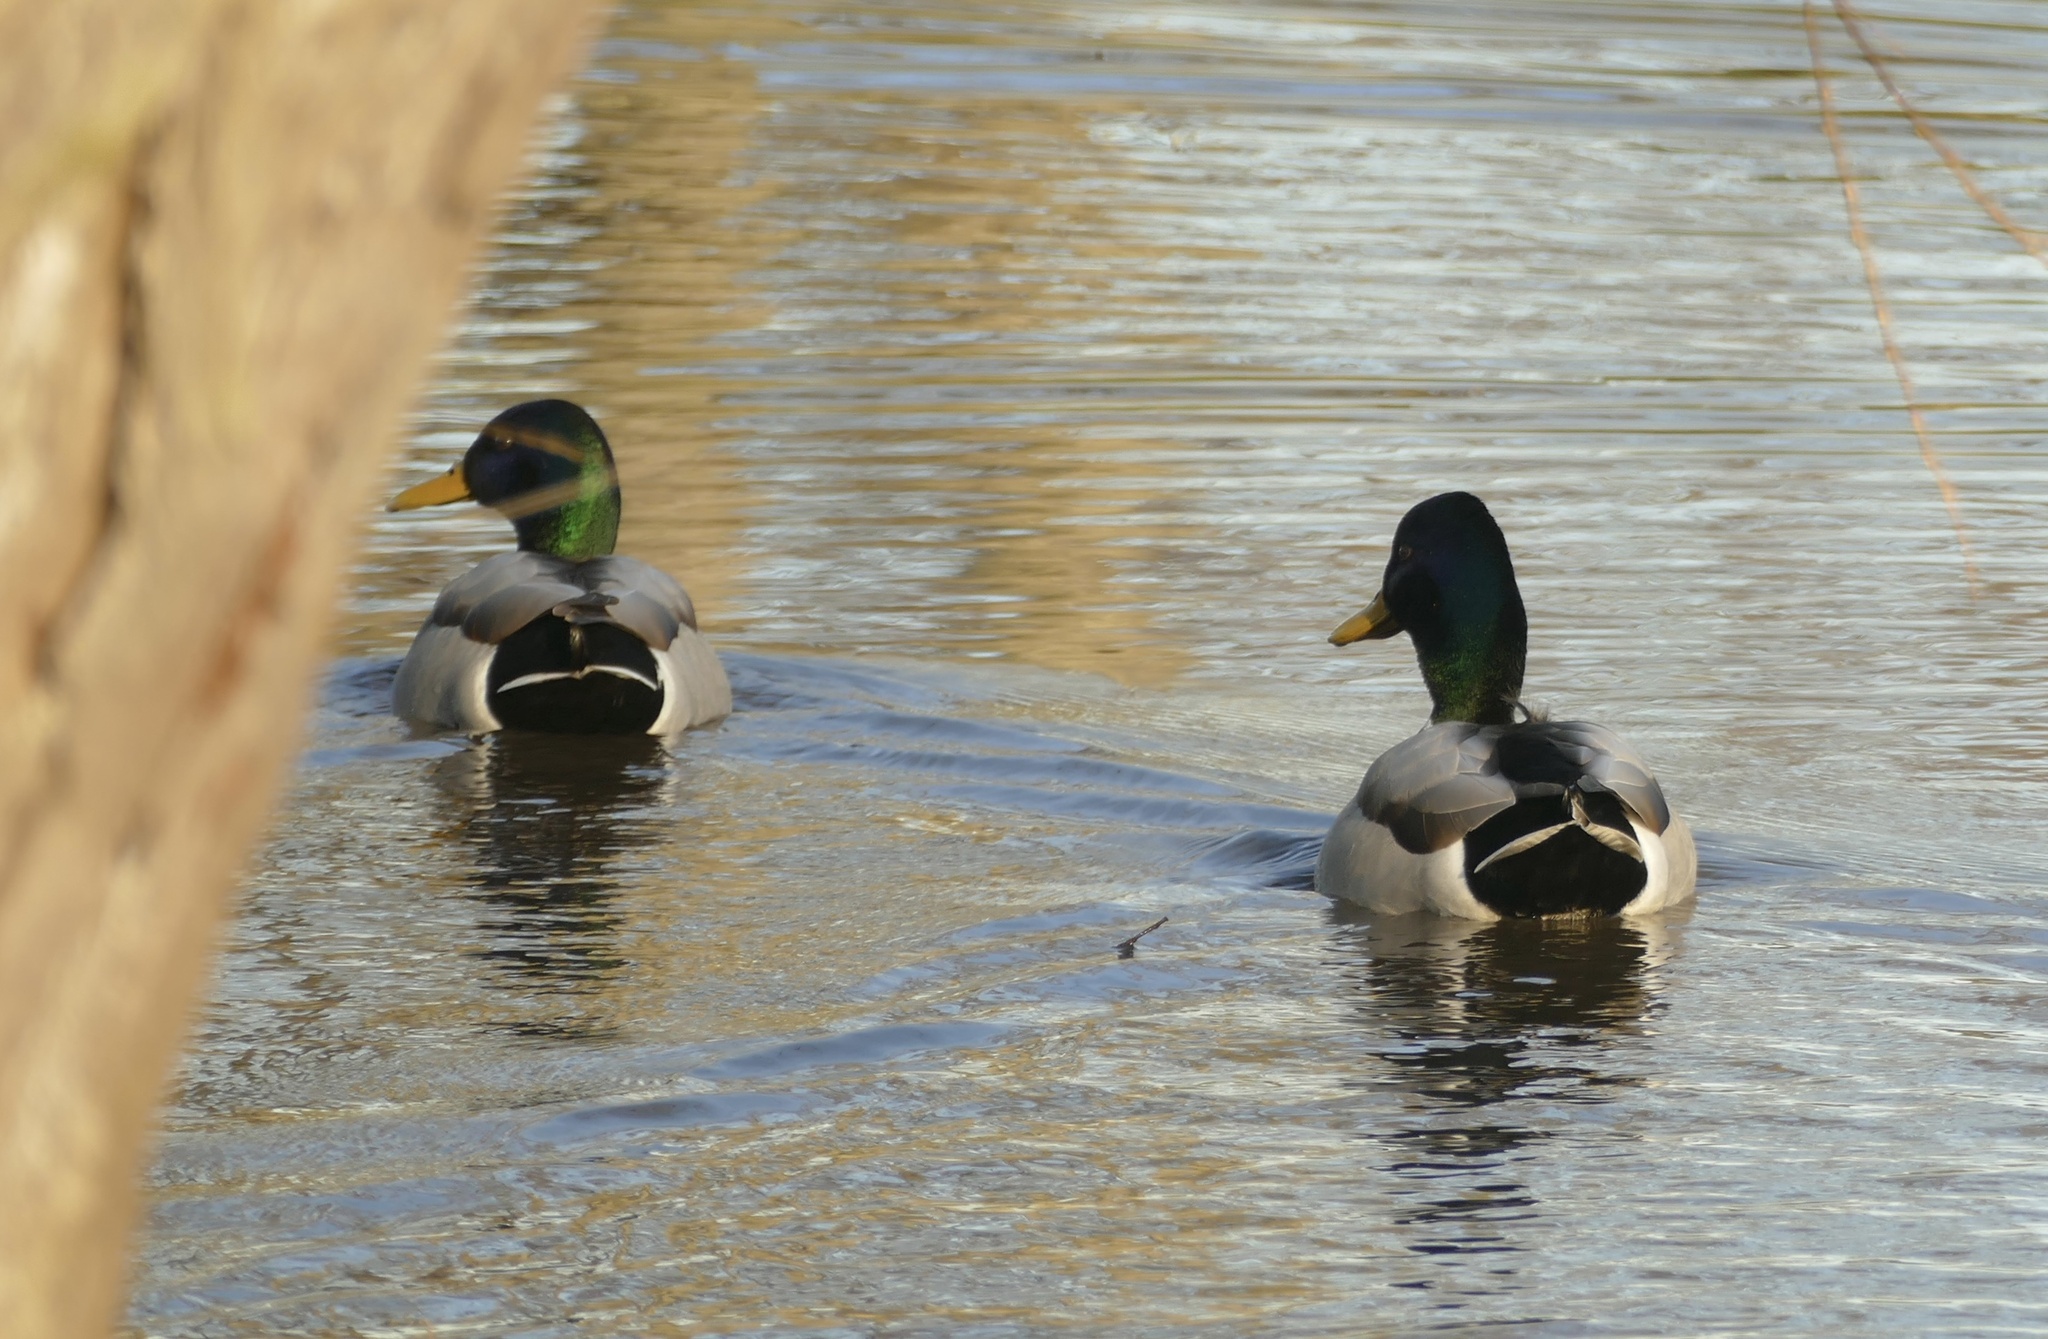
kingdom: Animalia
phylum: Chordata
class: Aves
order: Anseriformes
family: Anatidae
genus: Anas
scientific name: Anas platyrhynchos
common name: Mallard
